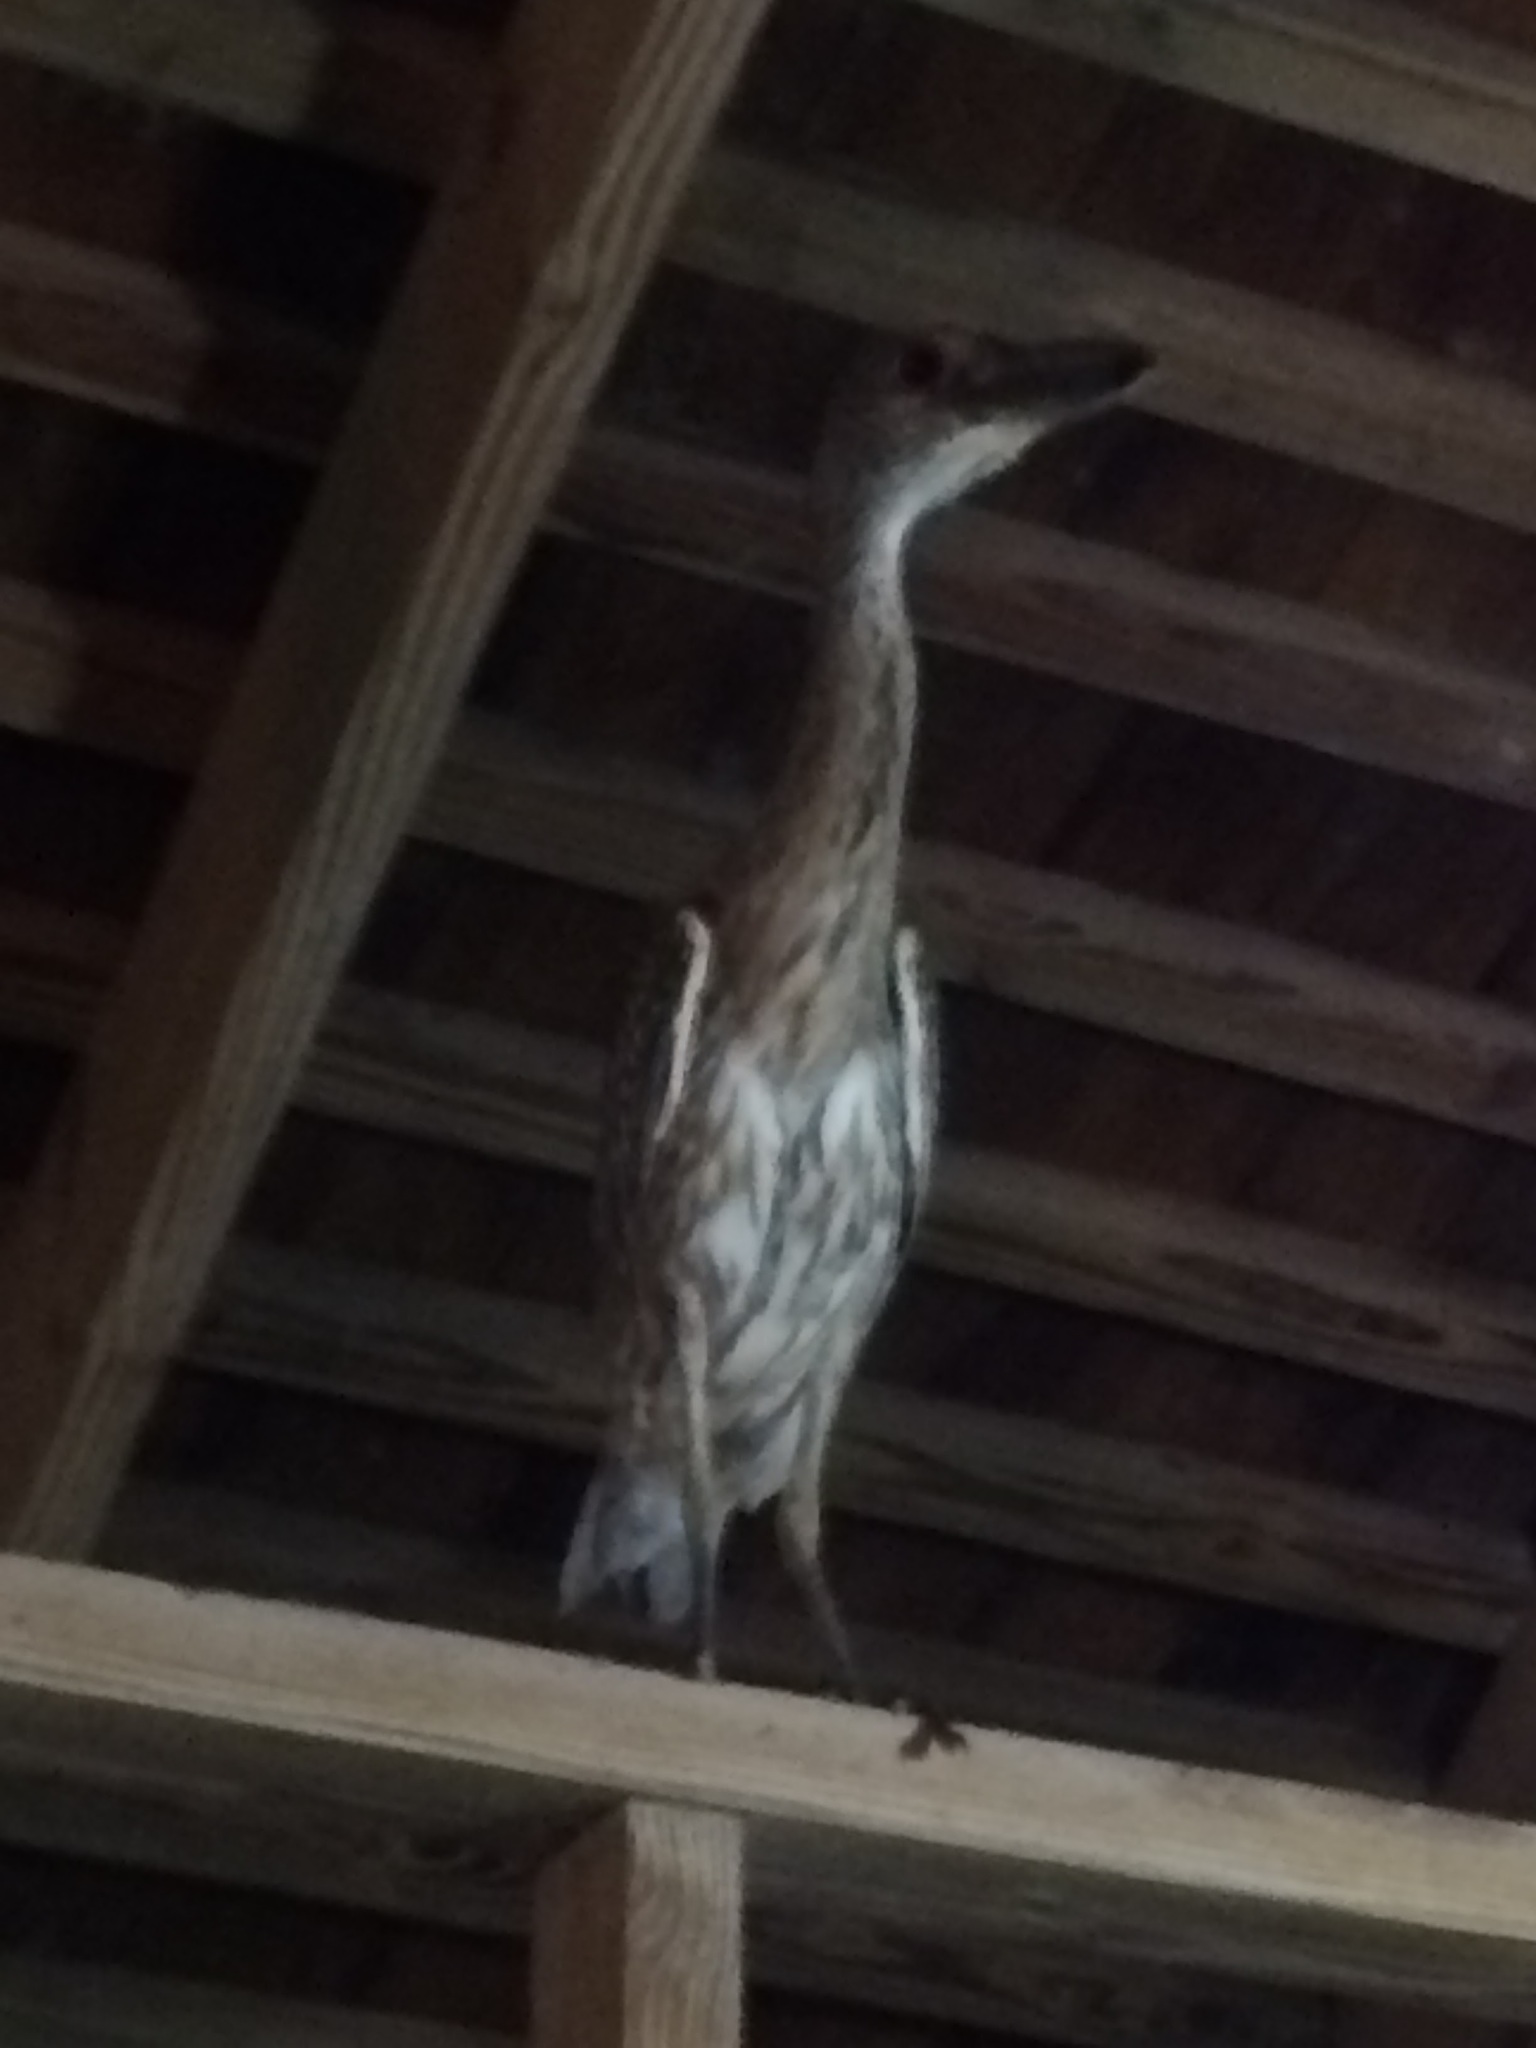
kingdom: Animalia
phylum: Chordata
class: Aves
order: Pelecaniformes
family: Ardeidae
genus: Nyctanassa
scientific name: Nyctanassa violacea
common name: Yellow-crowned night heron
